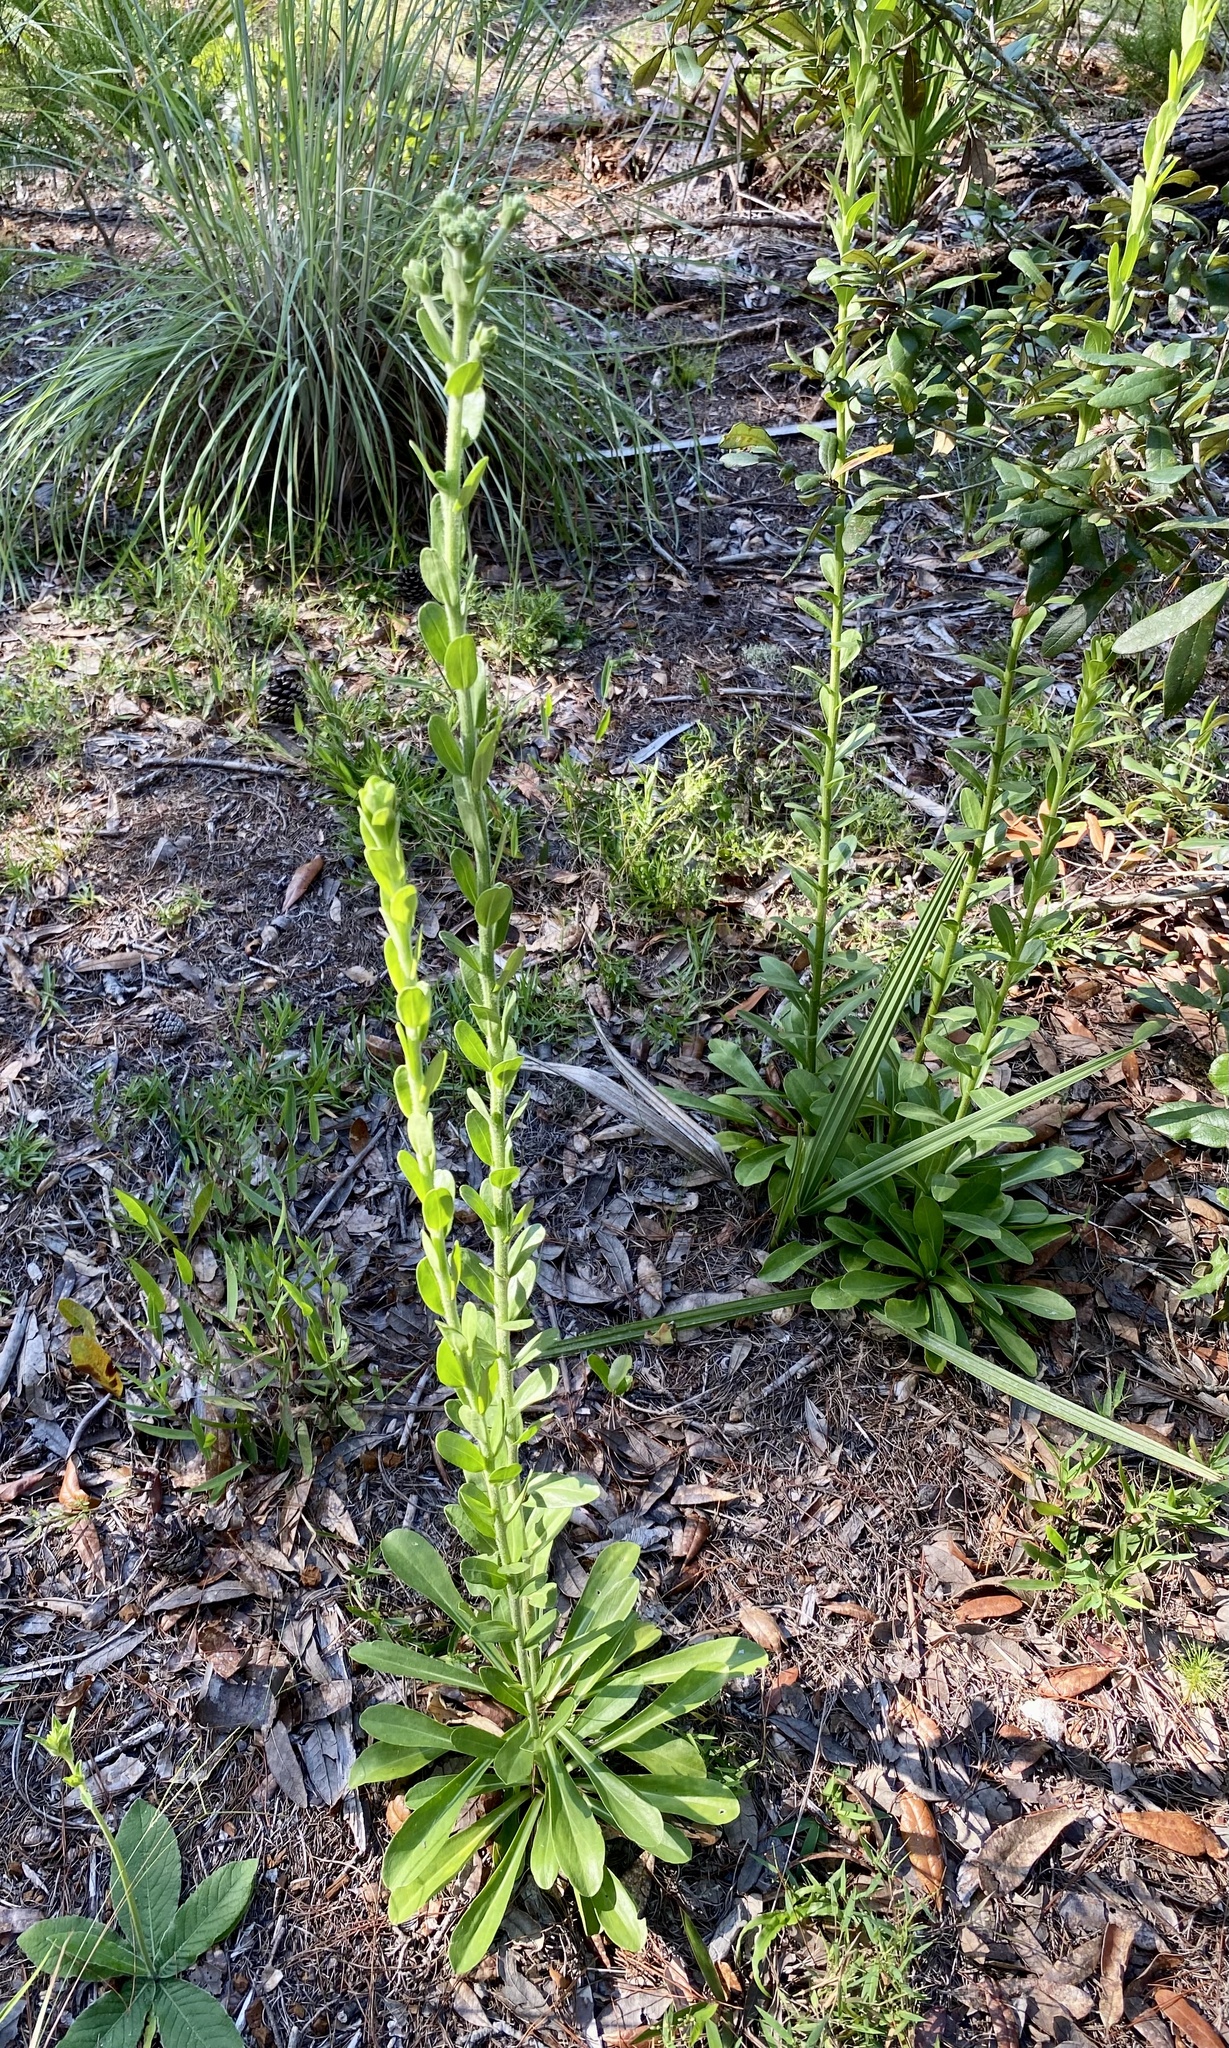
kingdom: Plantae
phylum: Tracheophyta
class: Magnoliopsida
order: Asterales
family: Asteraceae
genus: Carphephorus
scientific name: Carphephorus corymbosus
